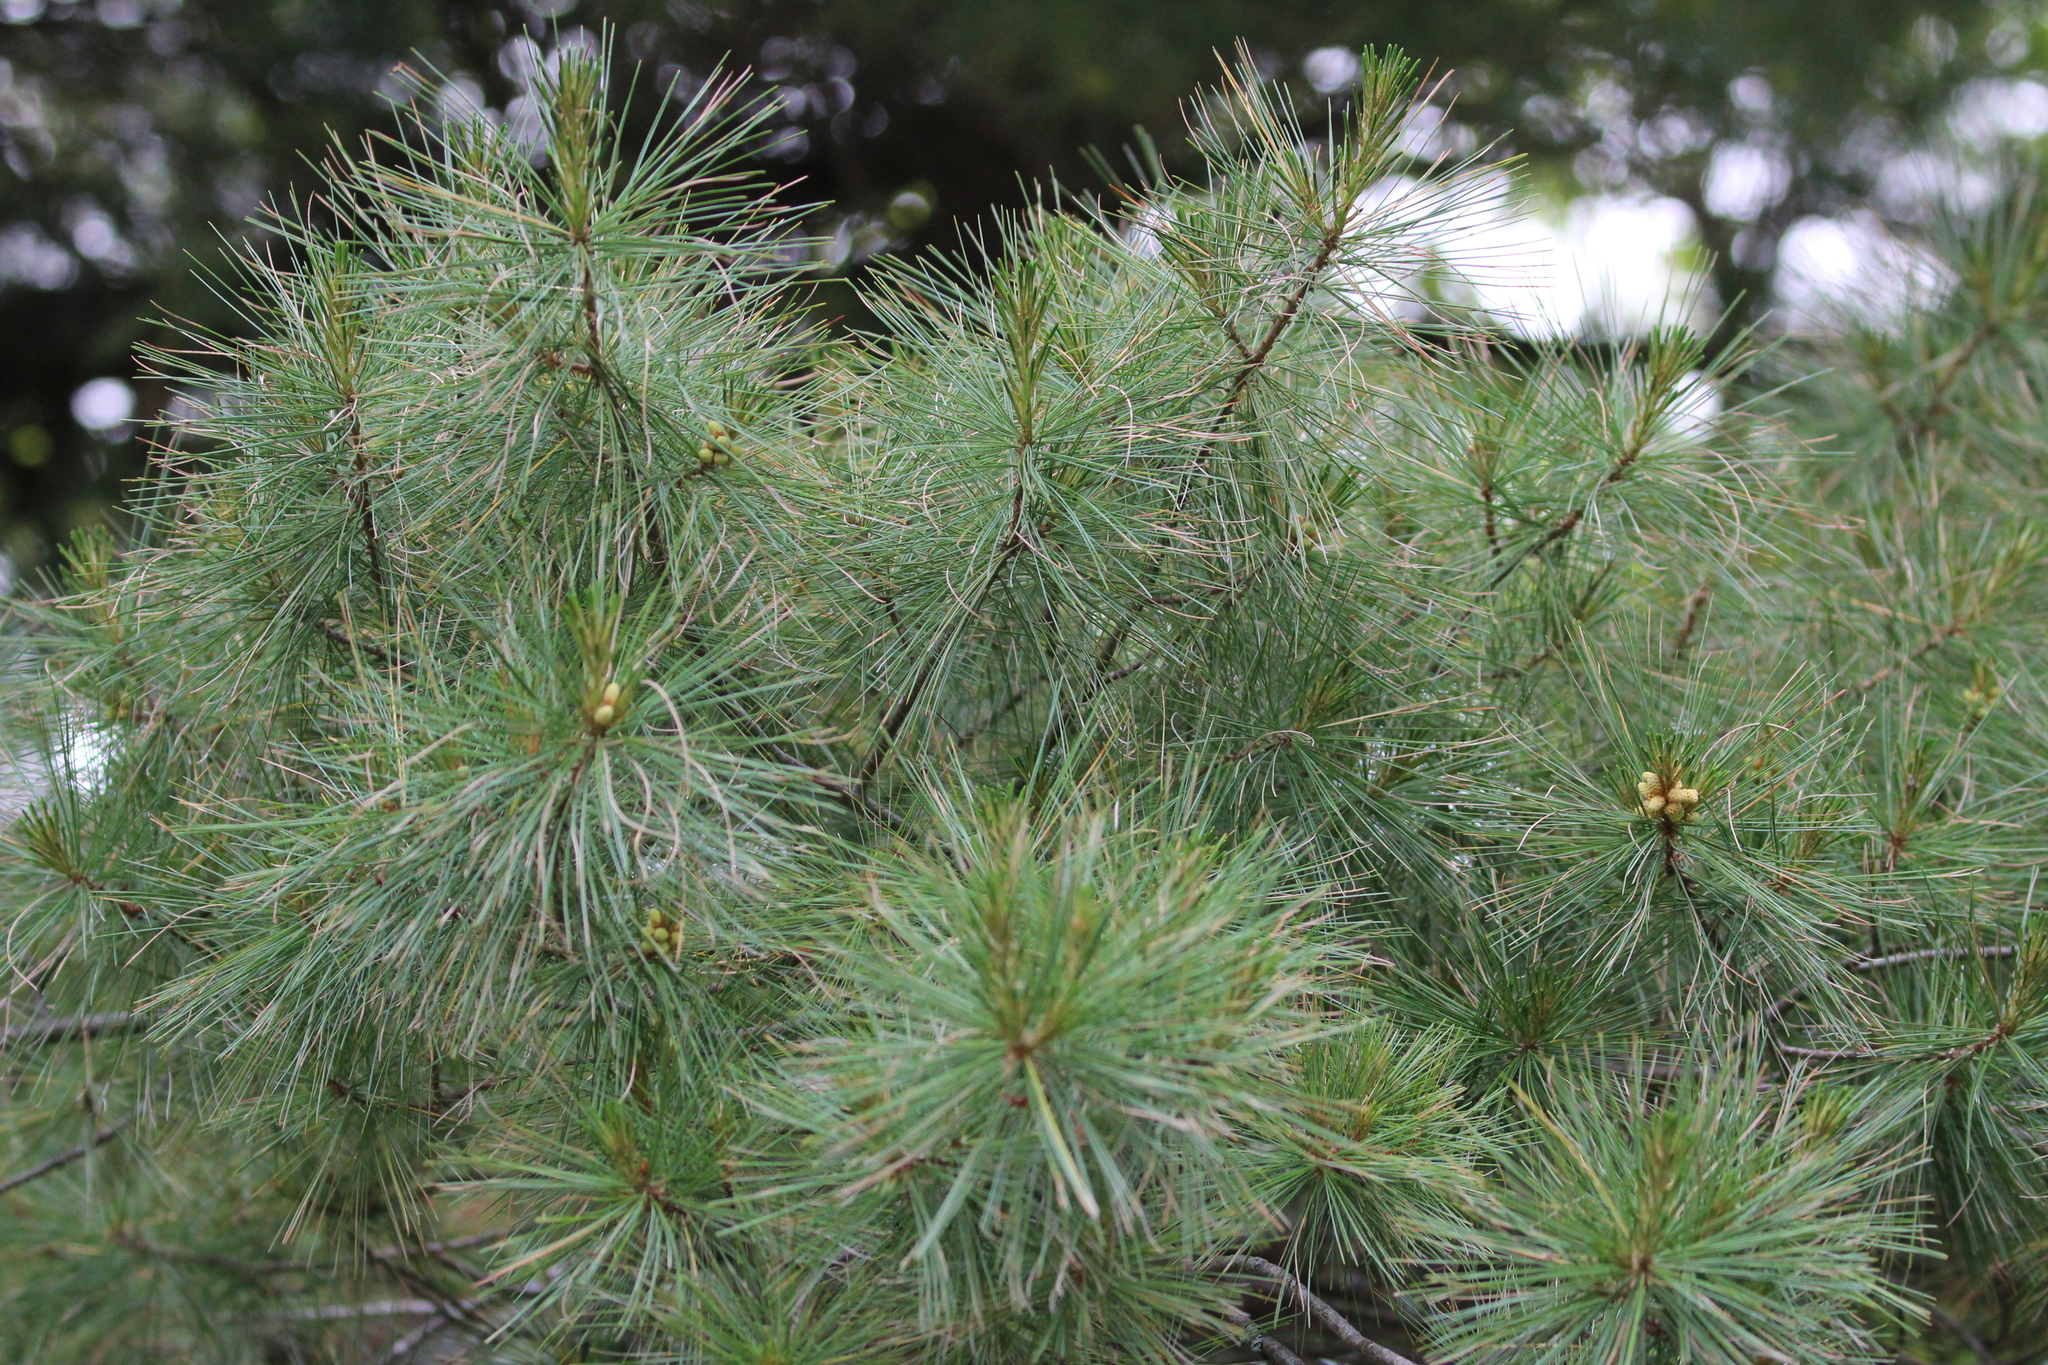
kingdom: Plantae
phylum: Tracheophyta
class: Pinopsida
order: Pinales
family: Pinaceae
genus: Pinus
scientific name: Pinus strobus
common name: Weymouth pine
